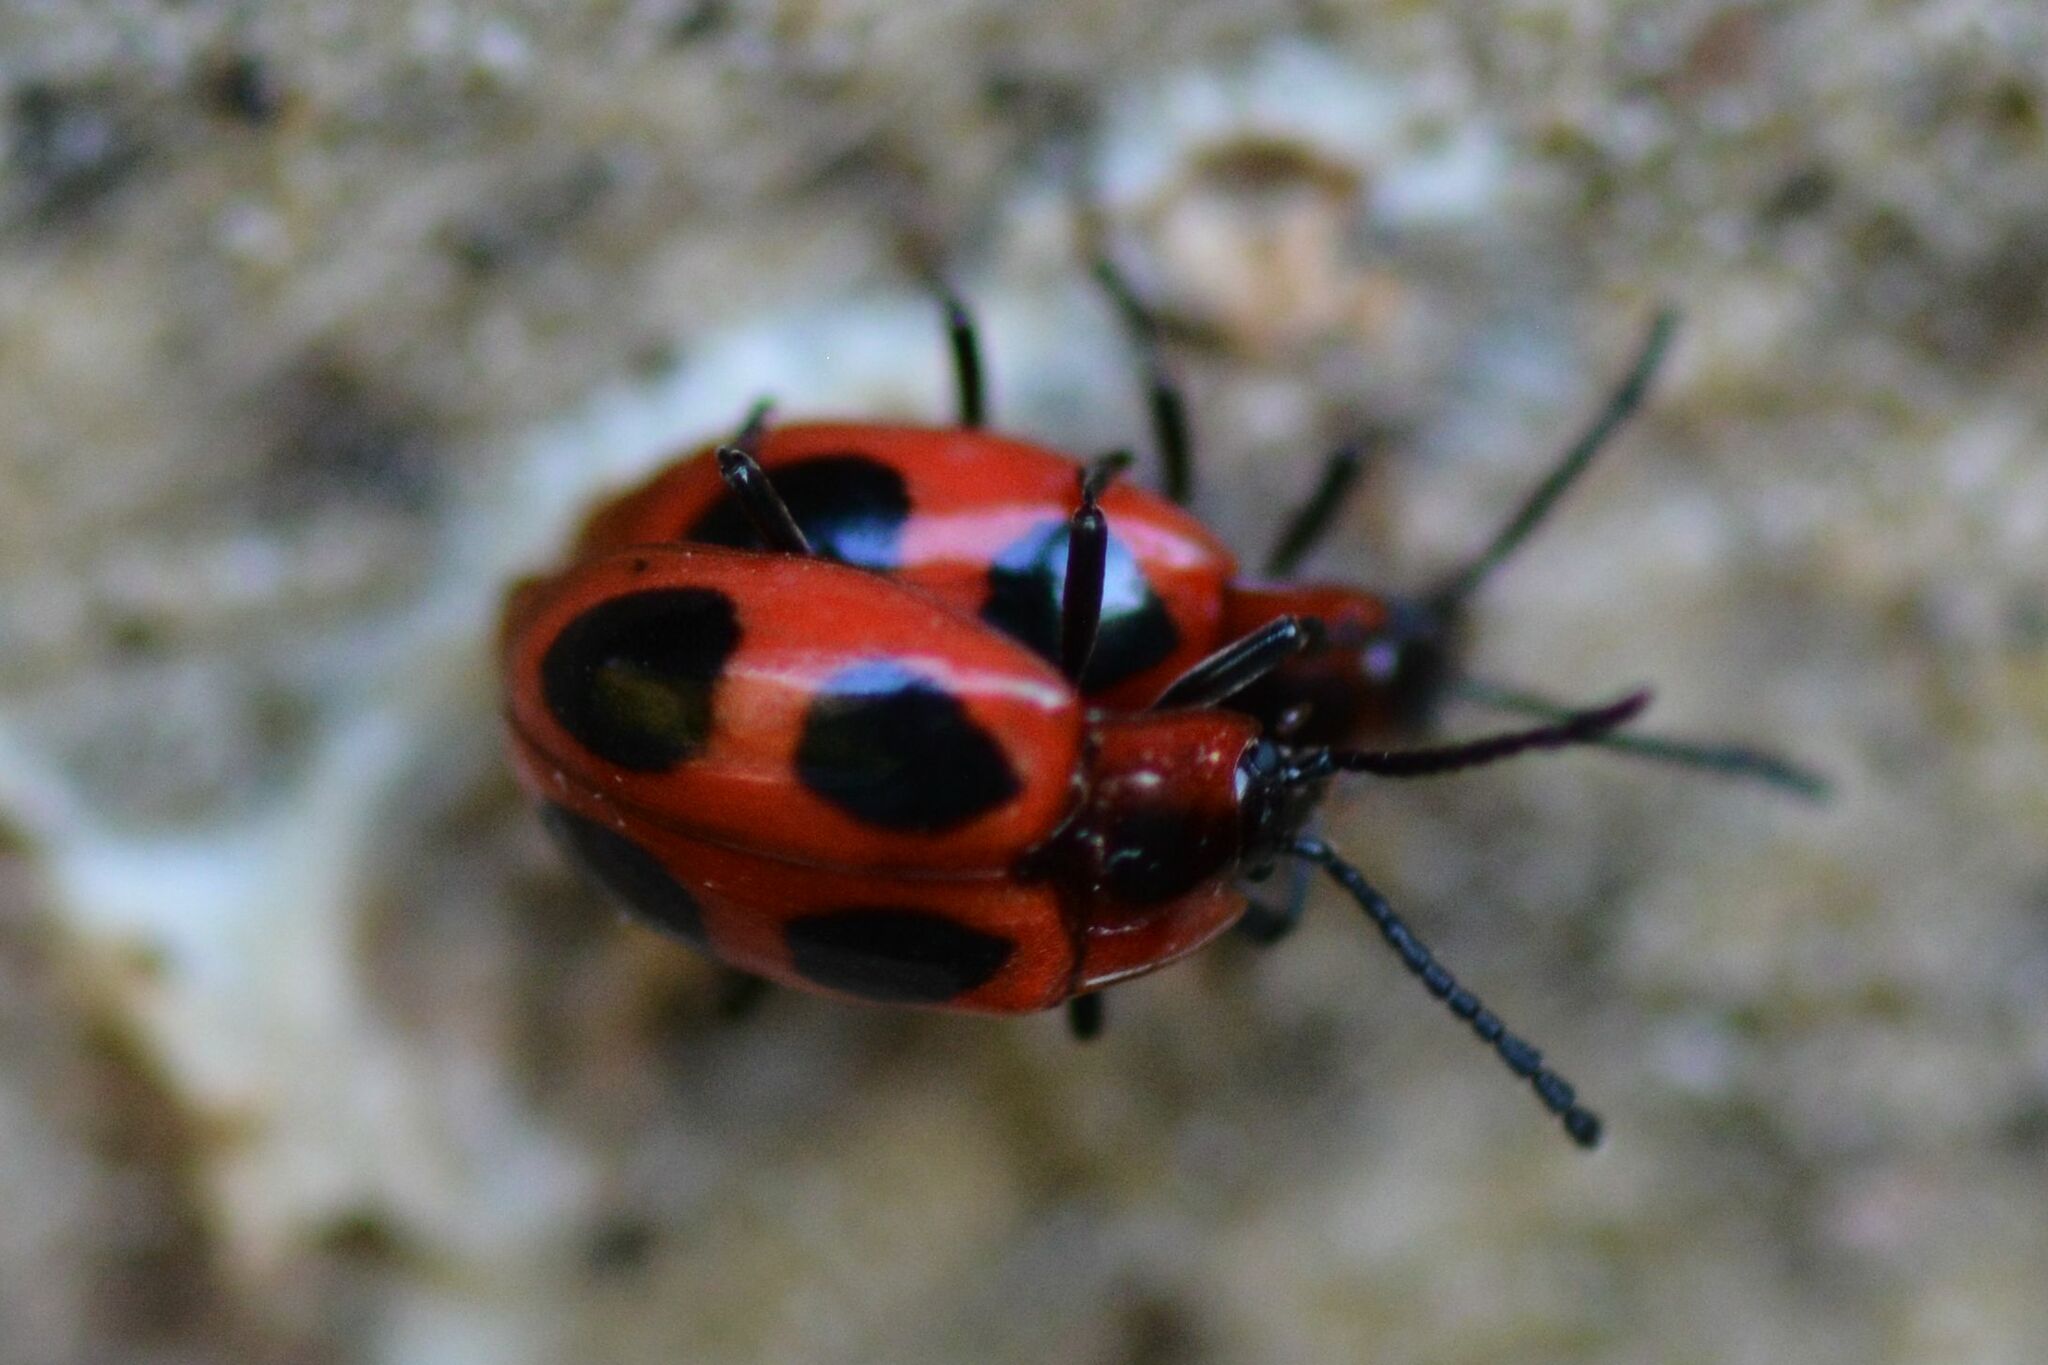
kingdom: Animalia
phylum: Arthropoda
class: Insecta
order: Coleoptera
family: Endomychidae
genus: Endomychus
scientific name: Endomychus coccineus
